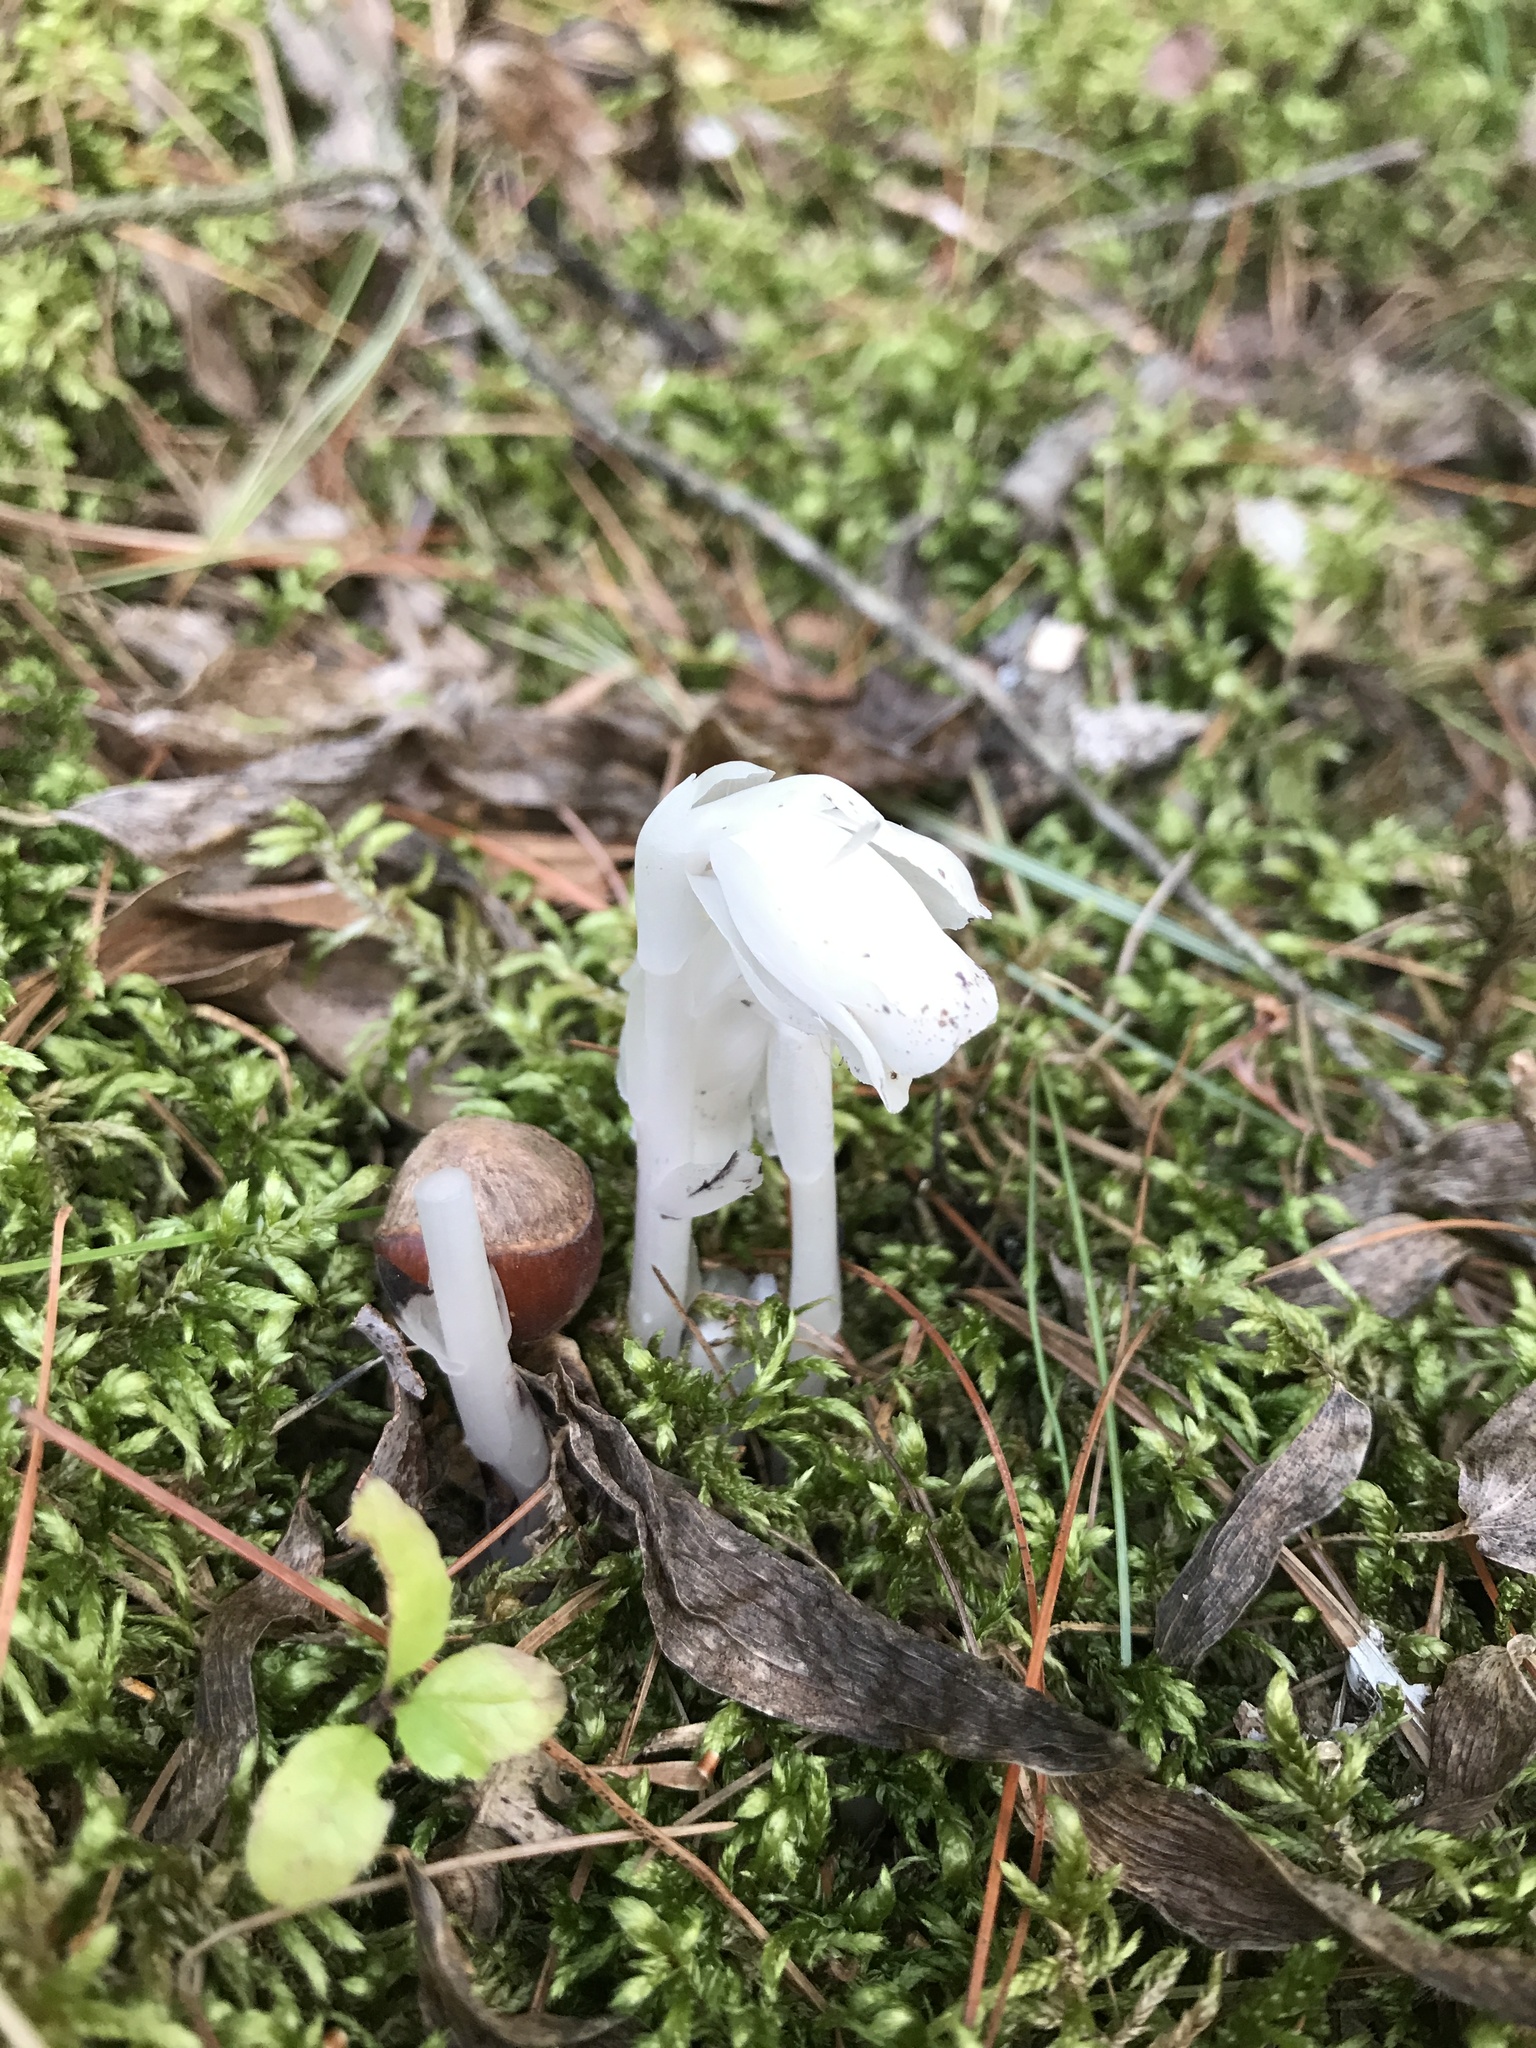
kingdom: Plantae
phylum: Tracheophyta
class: Magnoliopsida
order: Ericales
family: Ericaceae
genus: Monotropa
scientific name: Monotropa uniflora
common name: Convulsion root
